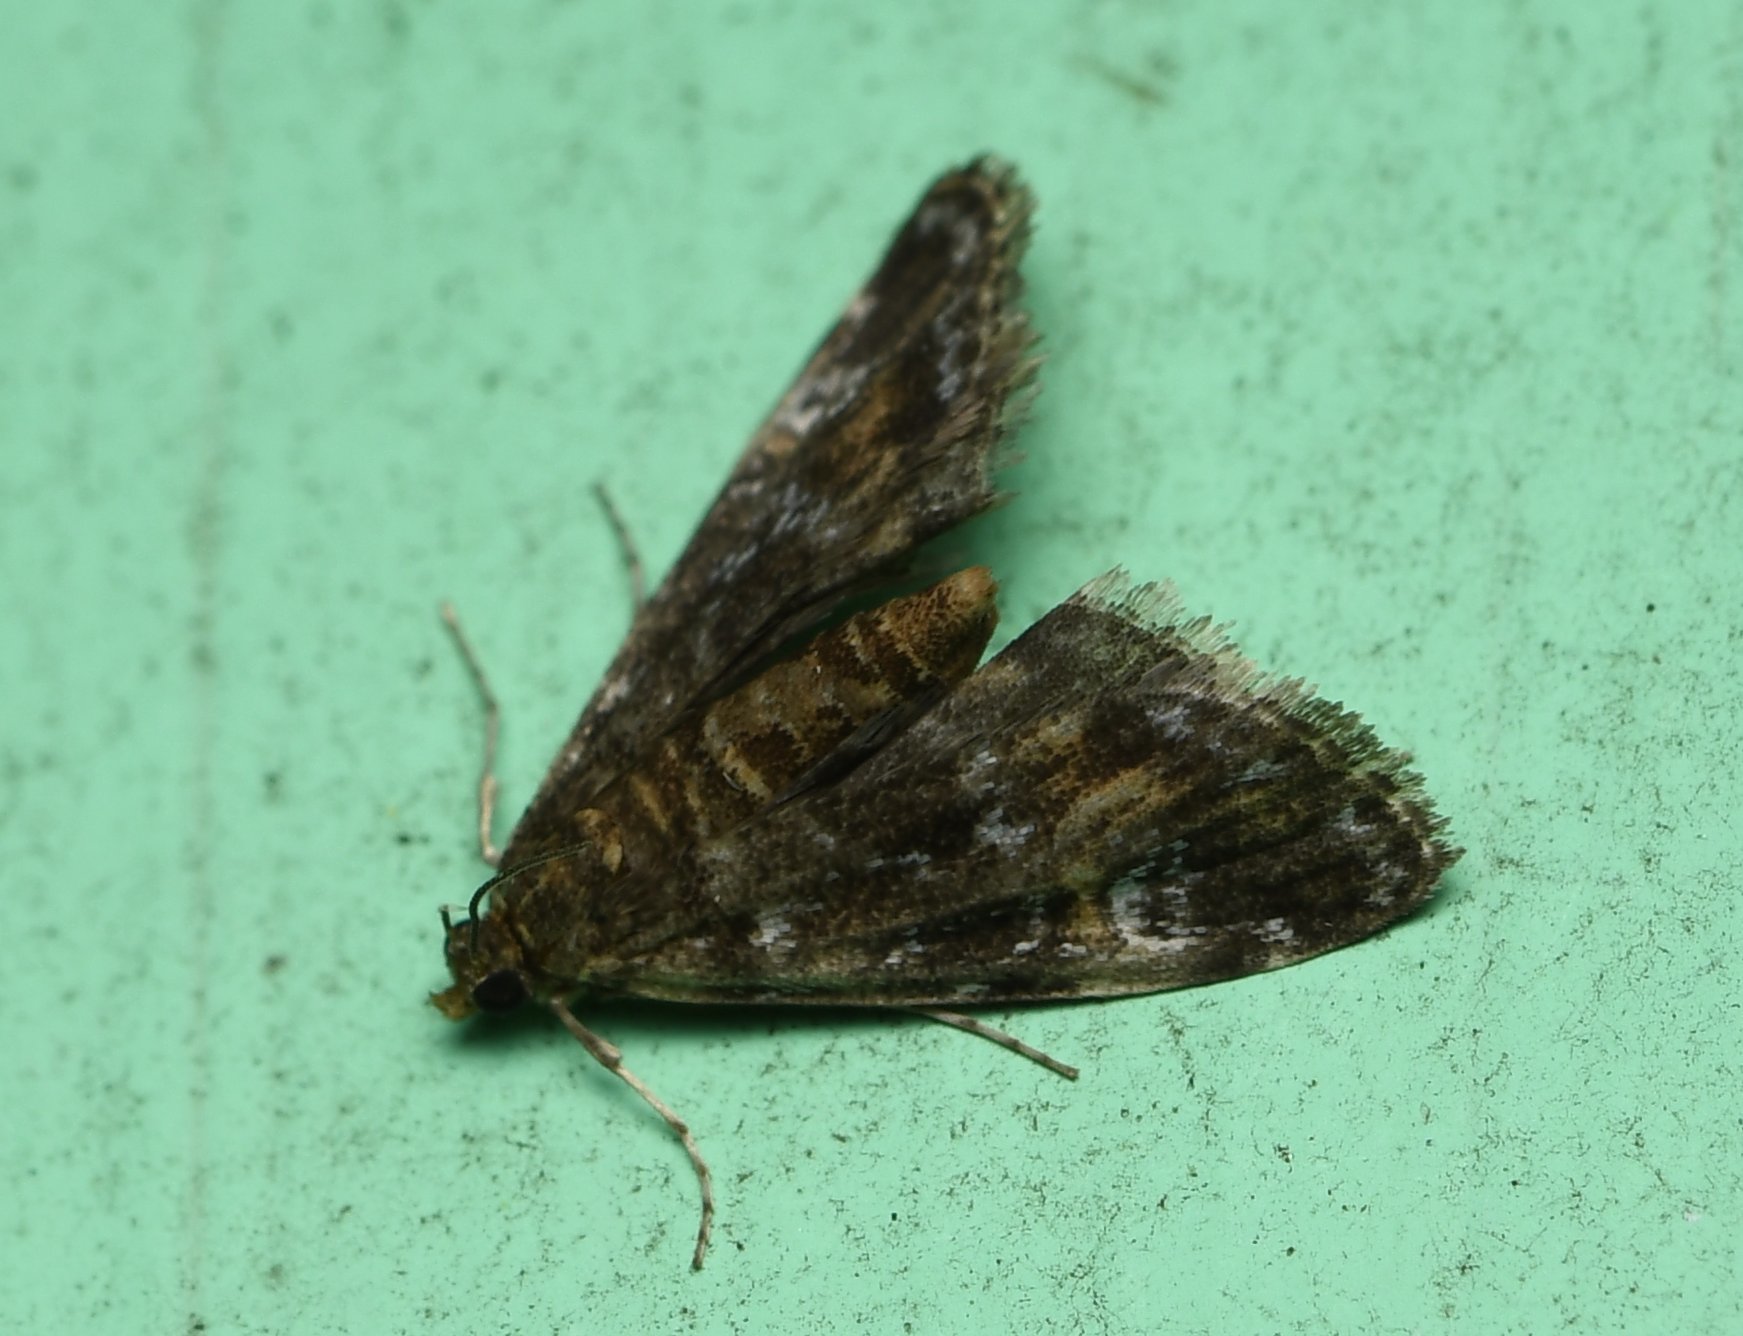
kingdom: Animalia
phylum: Arthropoda
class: Insecta
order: Lepidoptera
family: Crambidae
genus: Elophila
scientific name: Elophila obliteralis
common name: Waterlily leafcutter moth
